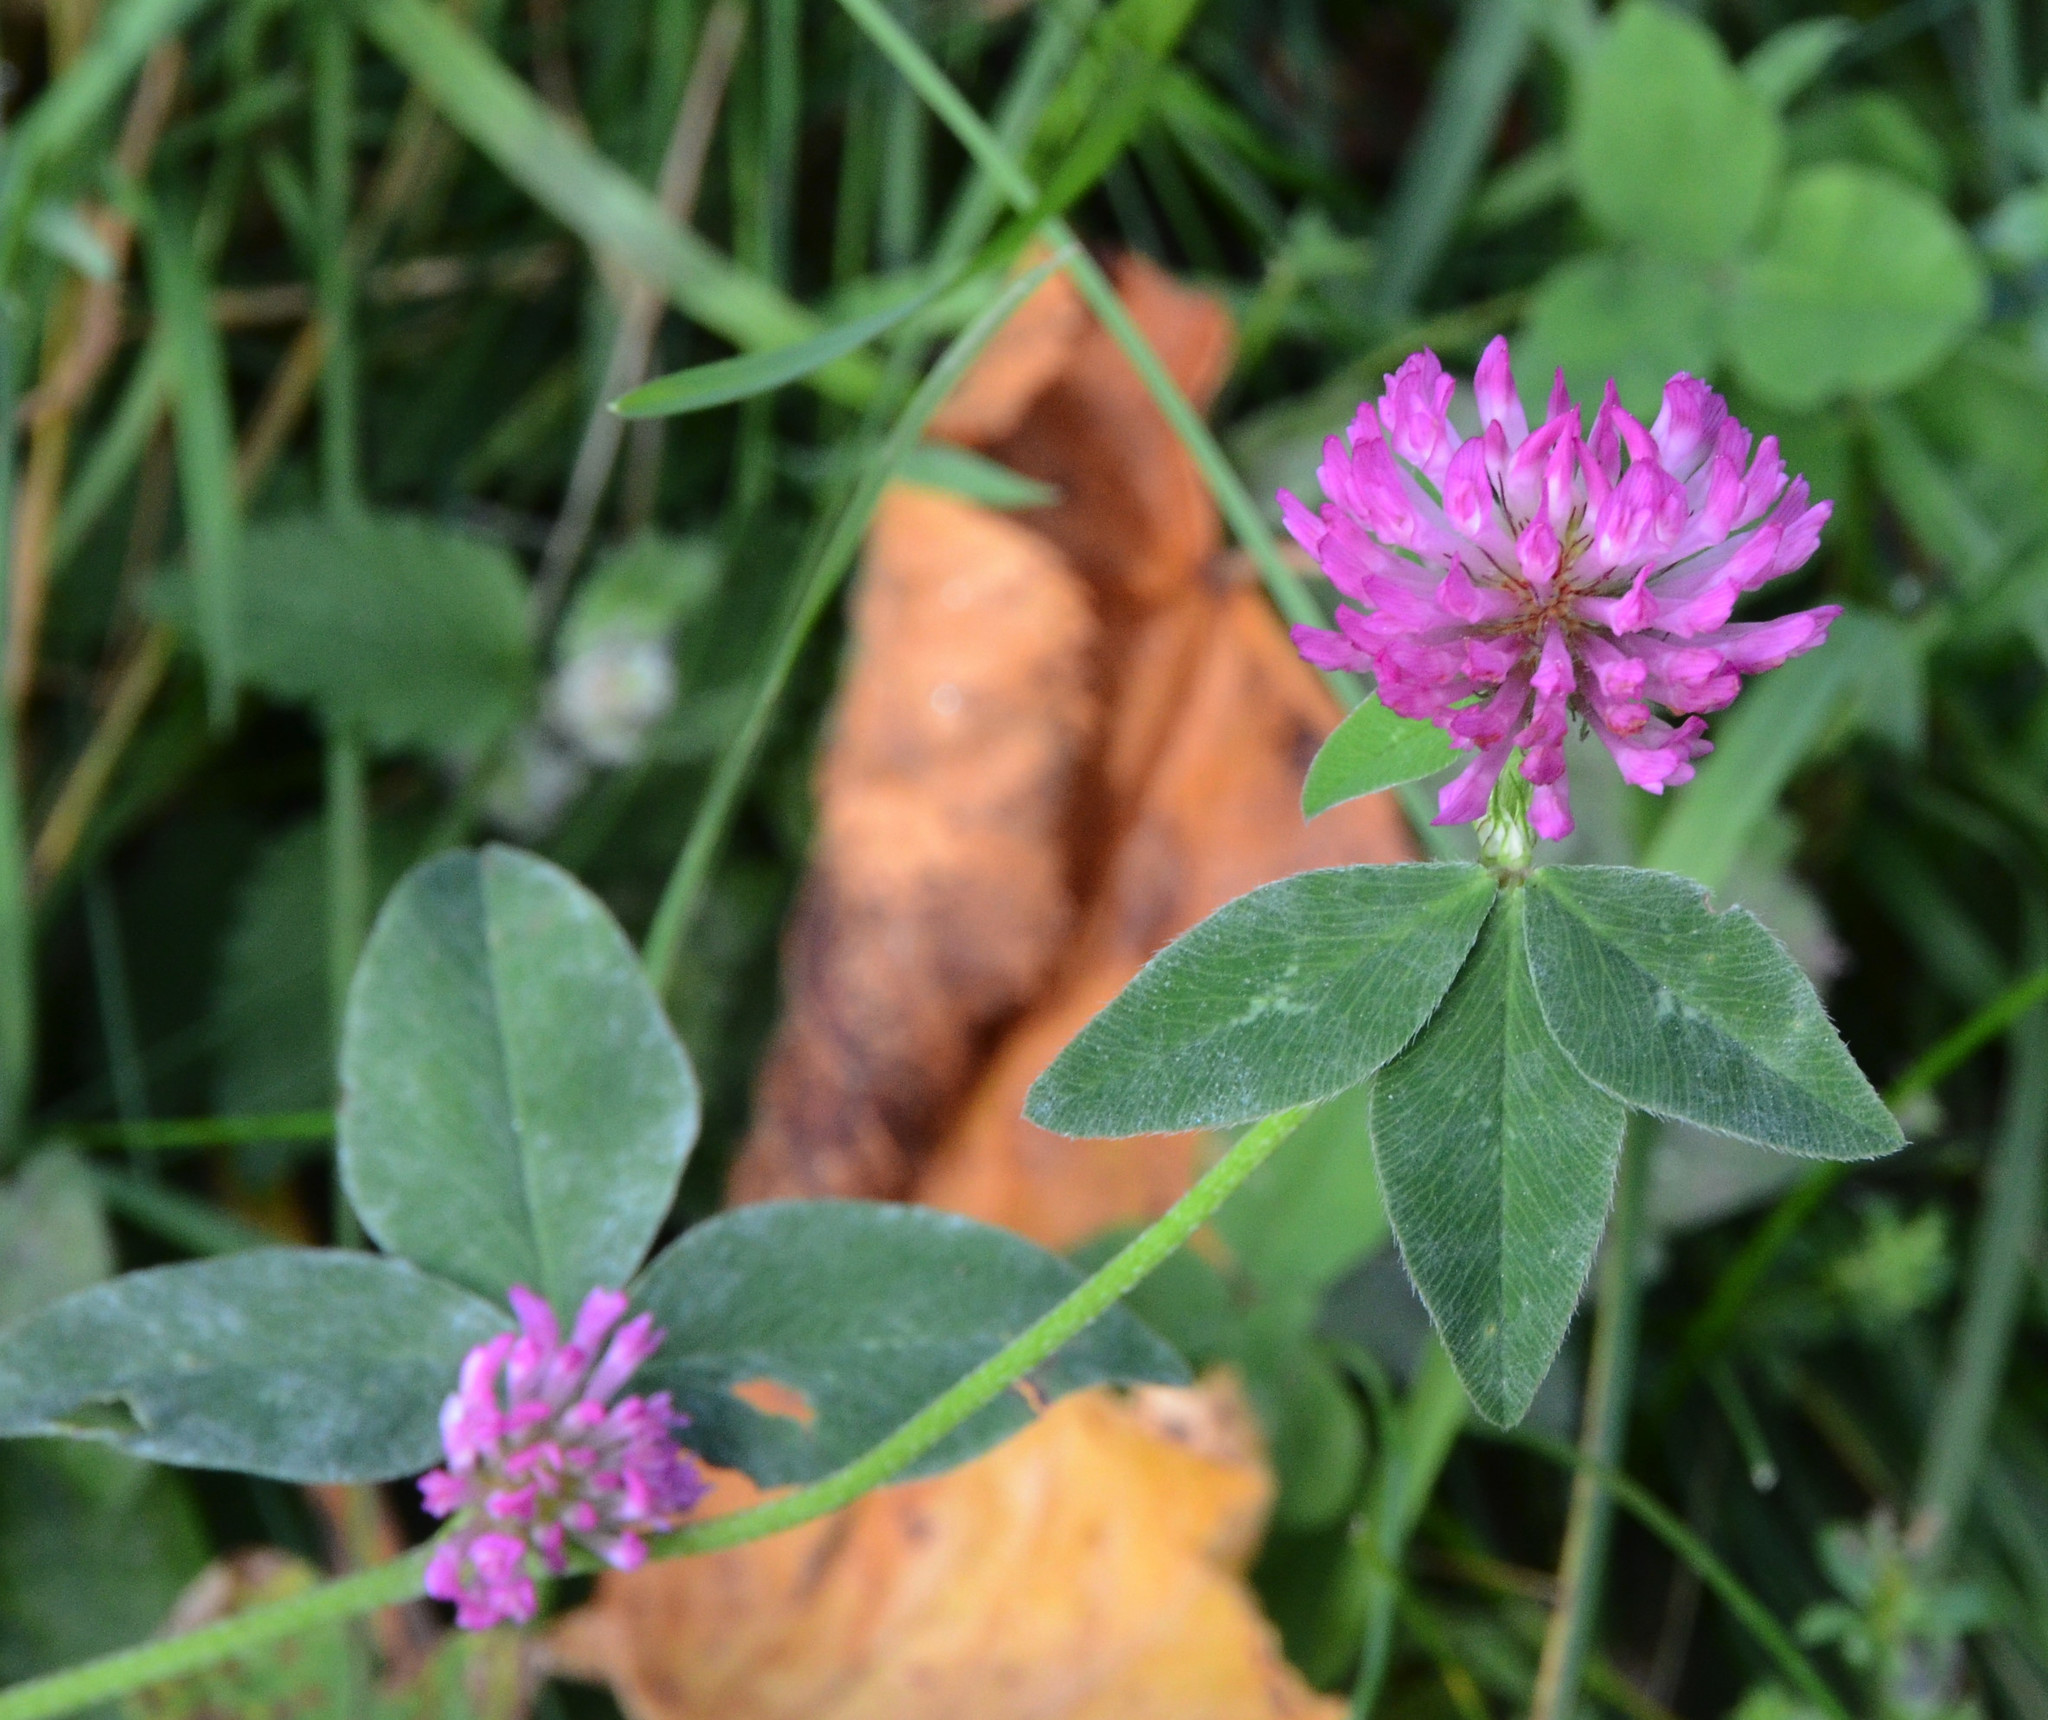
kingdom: Plantae
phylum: Tracheophyta
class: Magnoliopsida
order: Fabales
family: Fabaceae
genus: Trifolium
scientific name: Trifolium pratense
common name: Red clover
